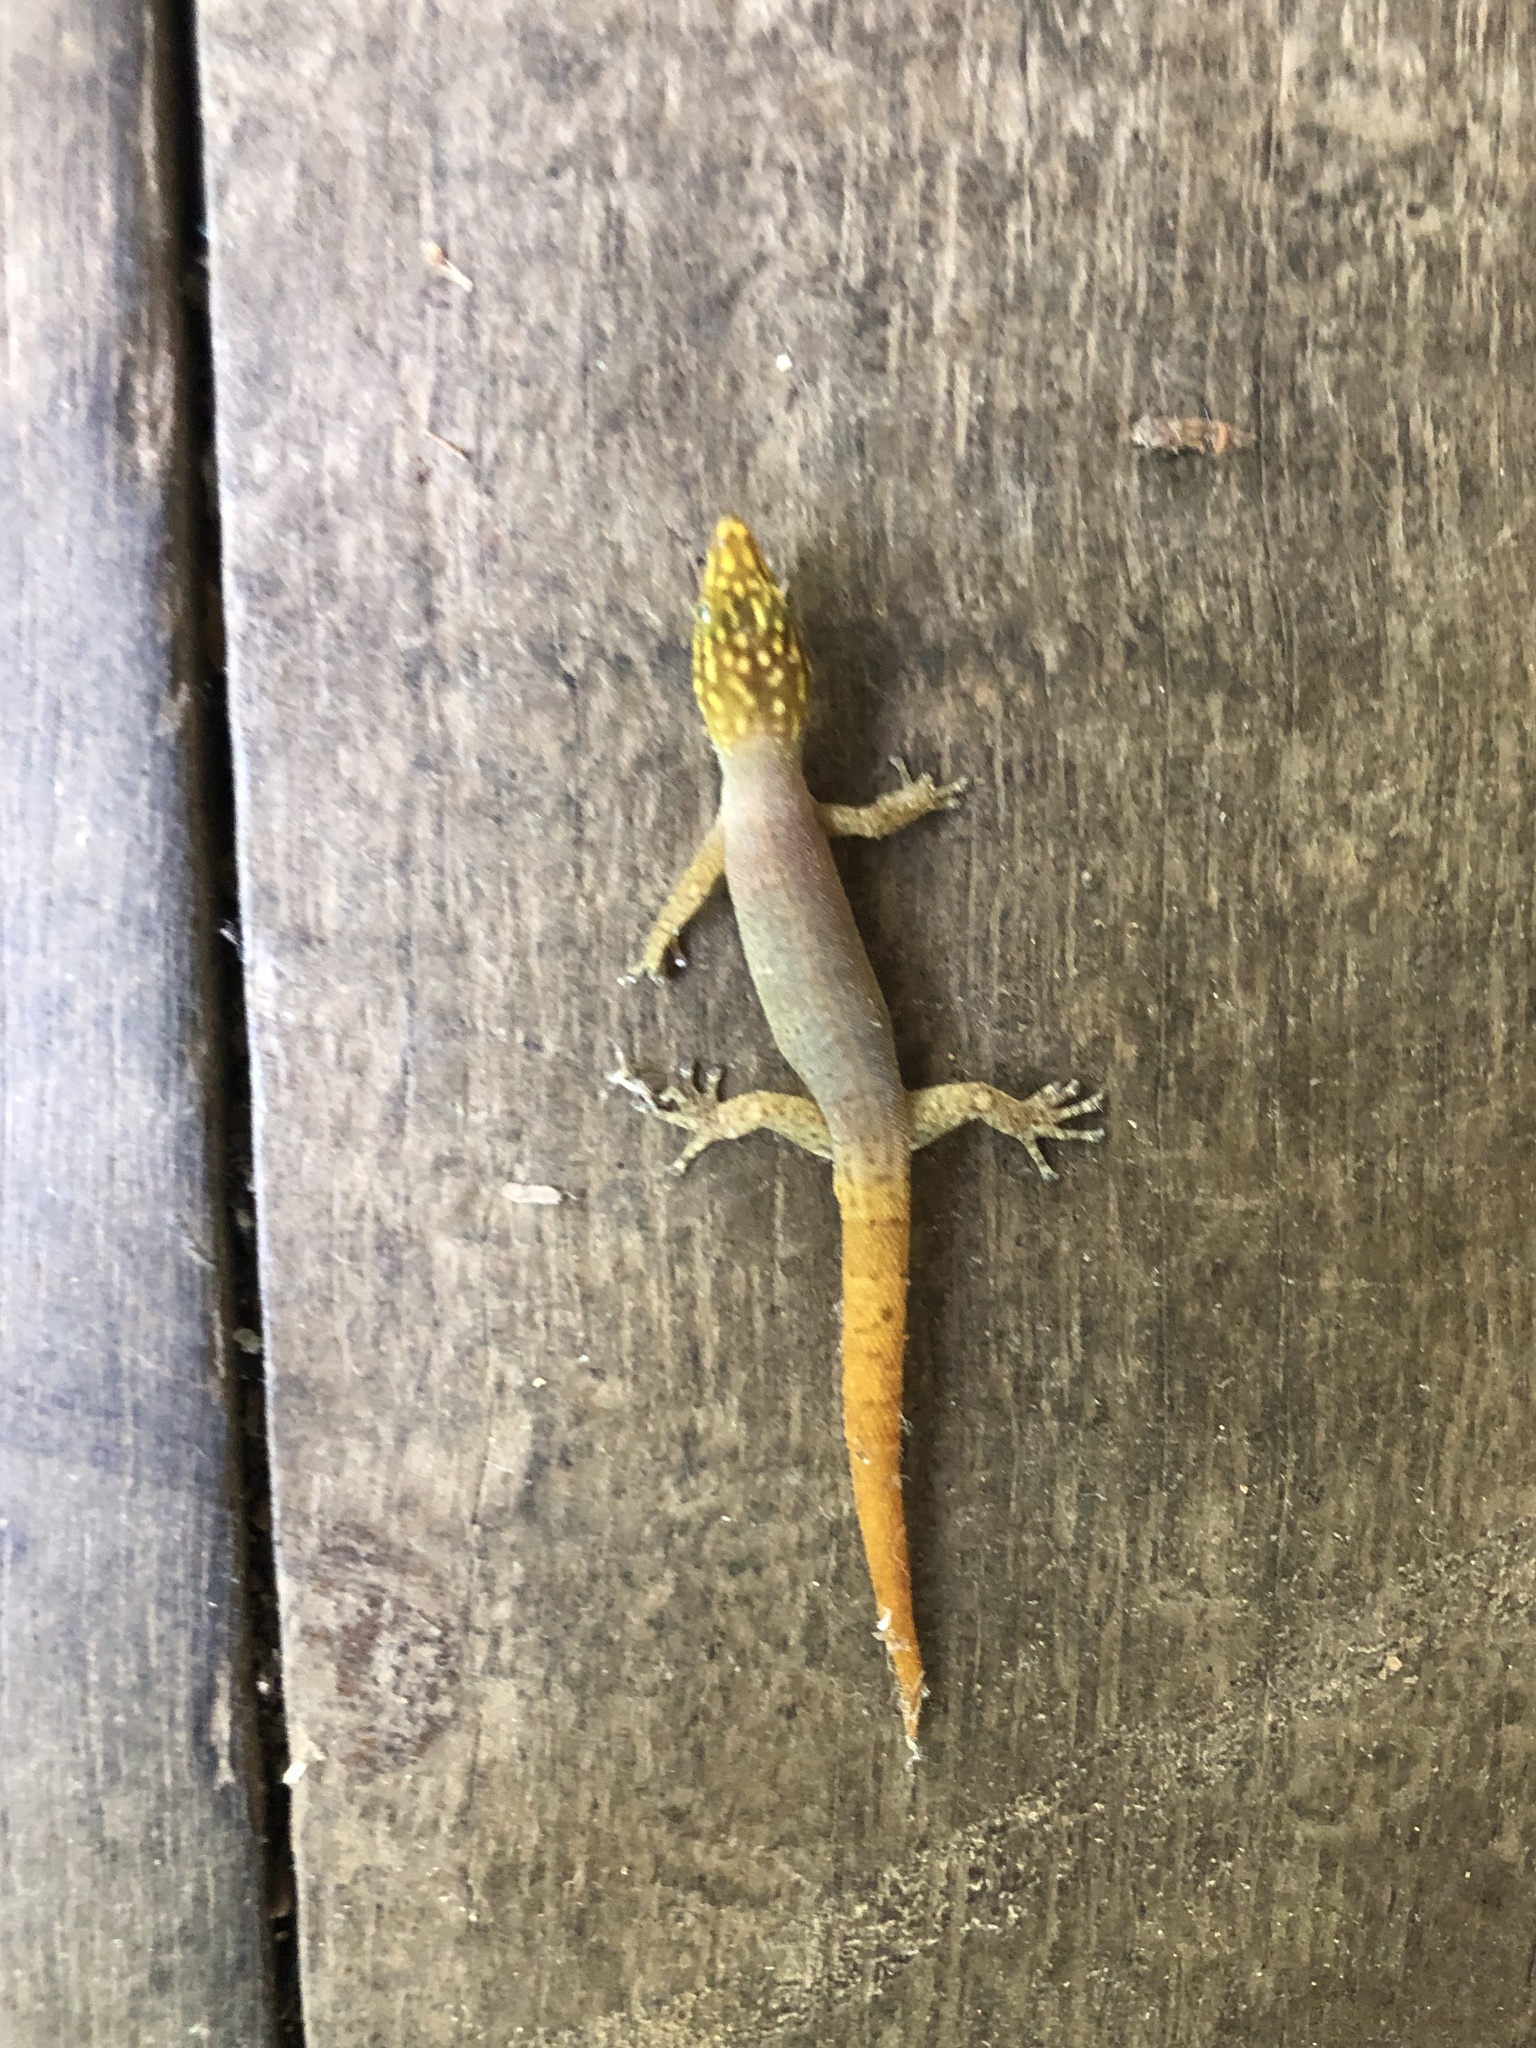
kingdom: Animalia
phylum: Chordata
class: Squamata
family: Sphaerodactylidae
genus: Sphaerodactylus
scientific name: Sphaerodactylus homolepis
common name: Caribbean least gecko
